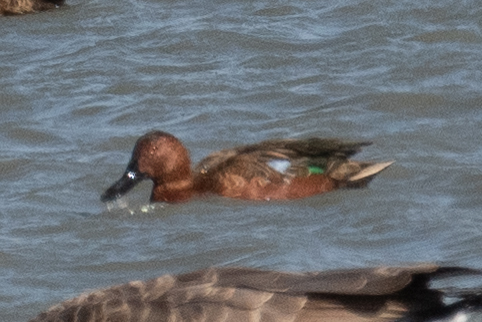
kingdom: Animalia
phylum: Chordata
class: Aves
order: Anseriformes
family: Anatidae
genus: Spatula
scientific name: Spatula cyanoptera
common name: Cinnamon teal
